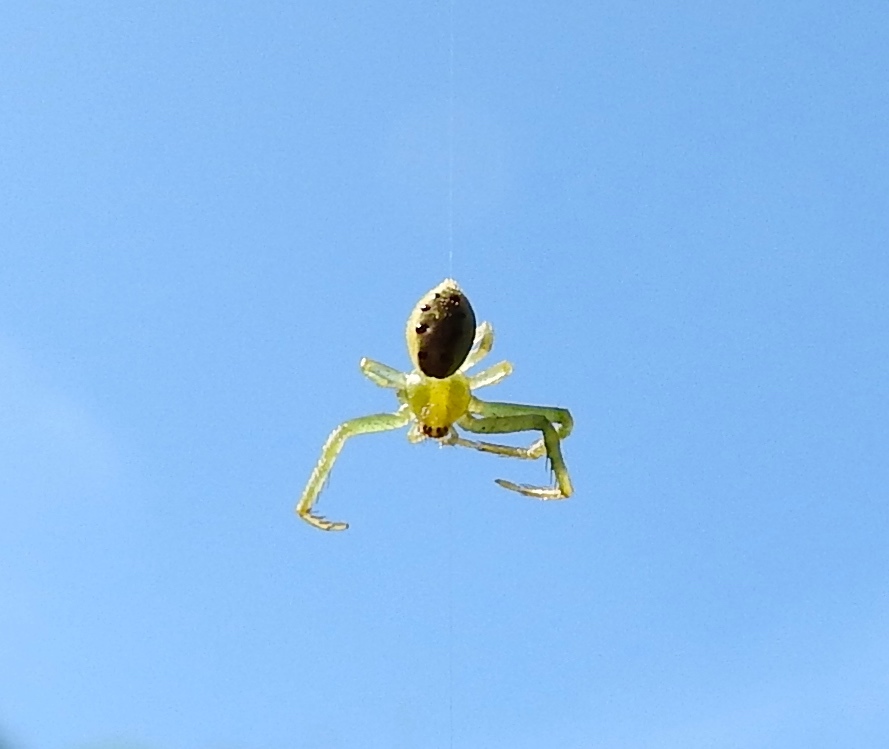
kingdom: Animalia
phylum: Arthropoda
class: Arachnida
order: Araneae
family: Thomisidae
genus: Isaloides
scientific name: Isaloides
